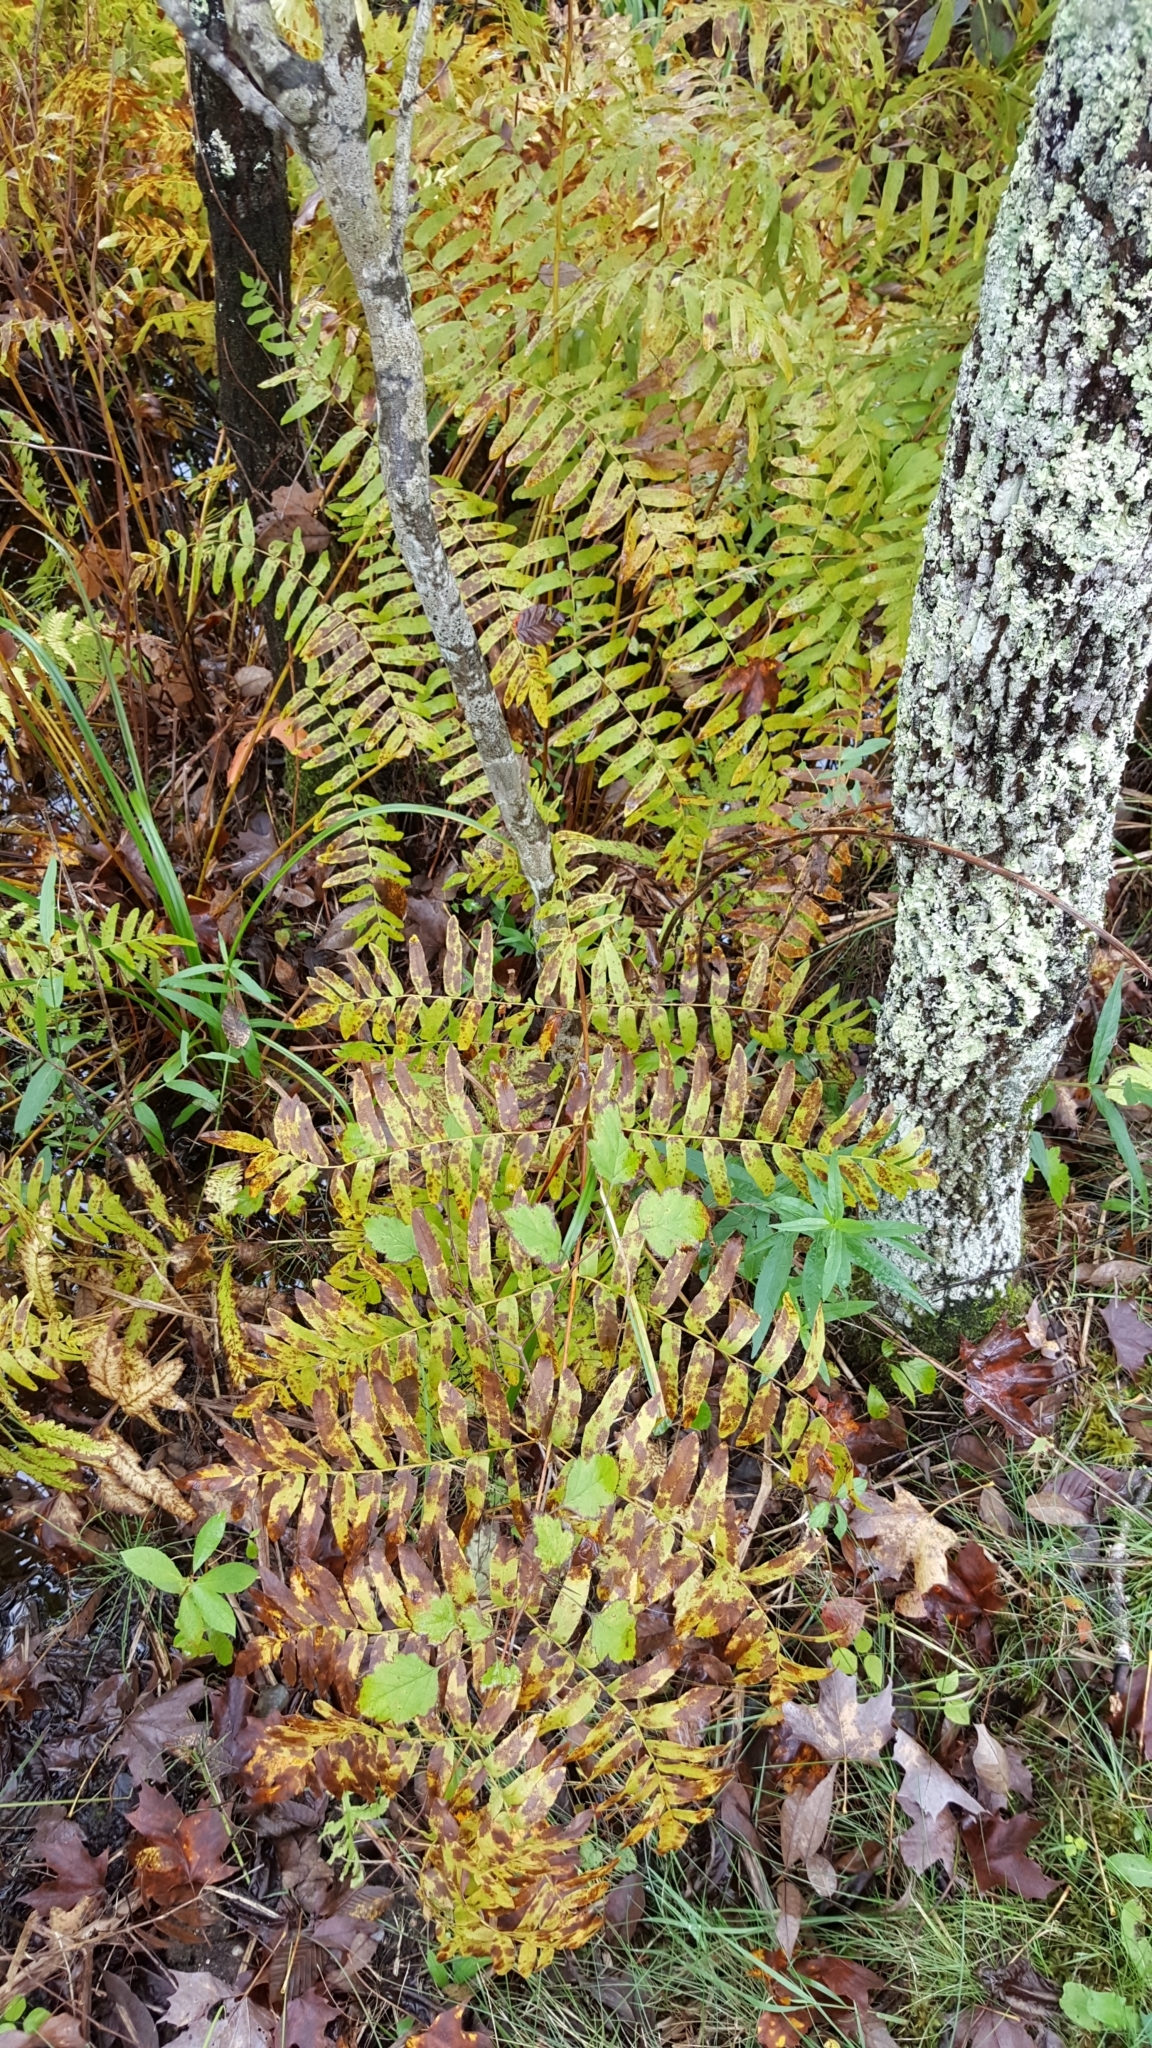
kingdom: Plantae
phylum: Tracheophyta
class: Polypodiopsida
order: Osmundales
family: Osmundaceae
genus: Osmunda
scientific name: Osmunda spectabilis
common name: American royal fern
